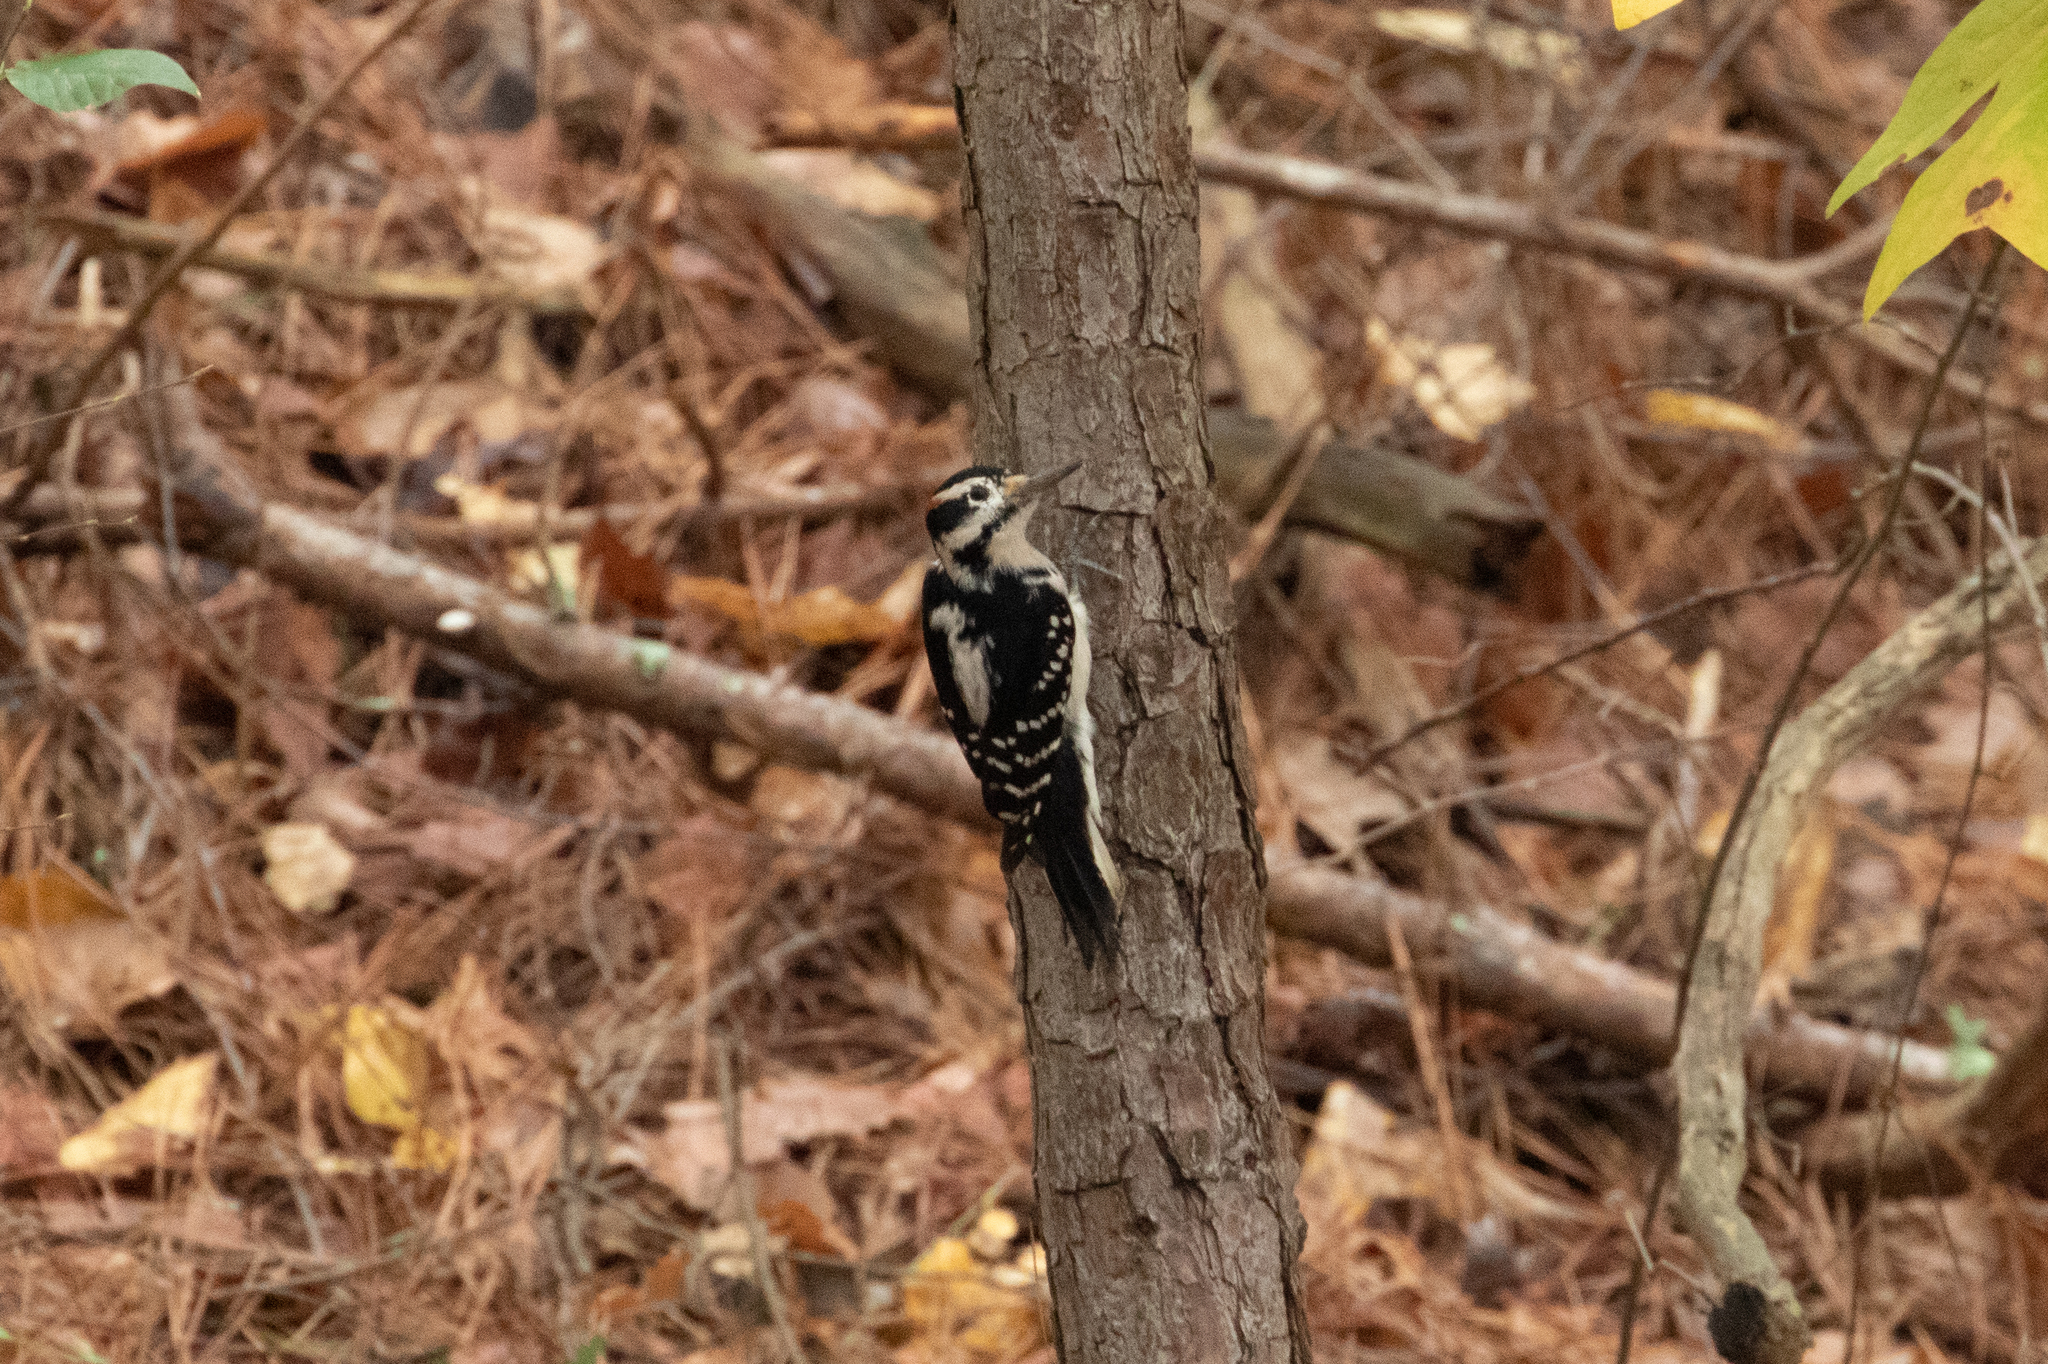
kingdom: Animalia
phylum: Chordata
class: Aves
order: Piciformes
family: Picidae
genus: Leuconotopicus
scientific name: Leuconotopicus villosus
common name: Hairy woodpecker
